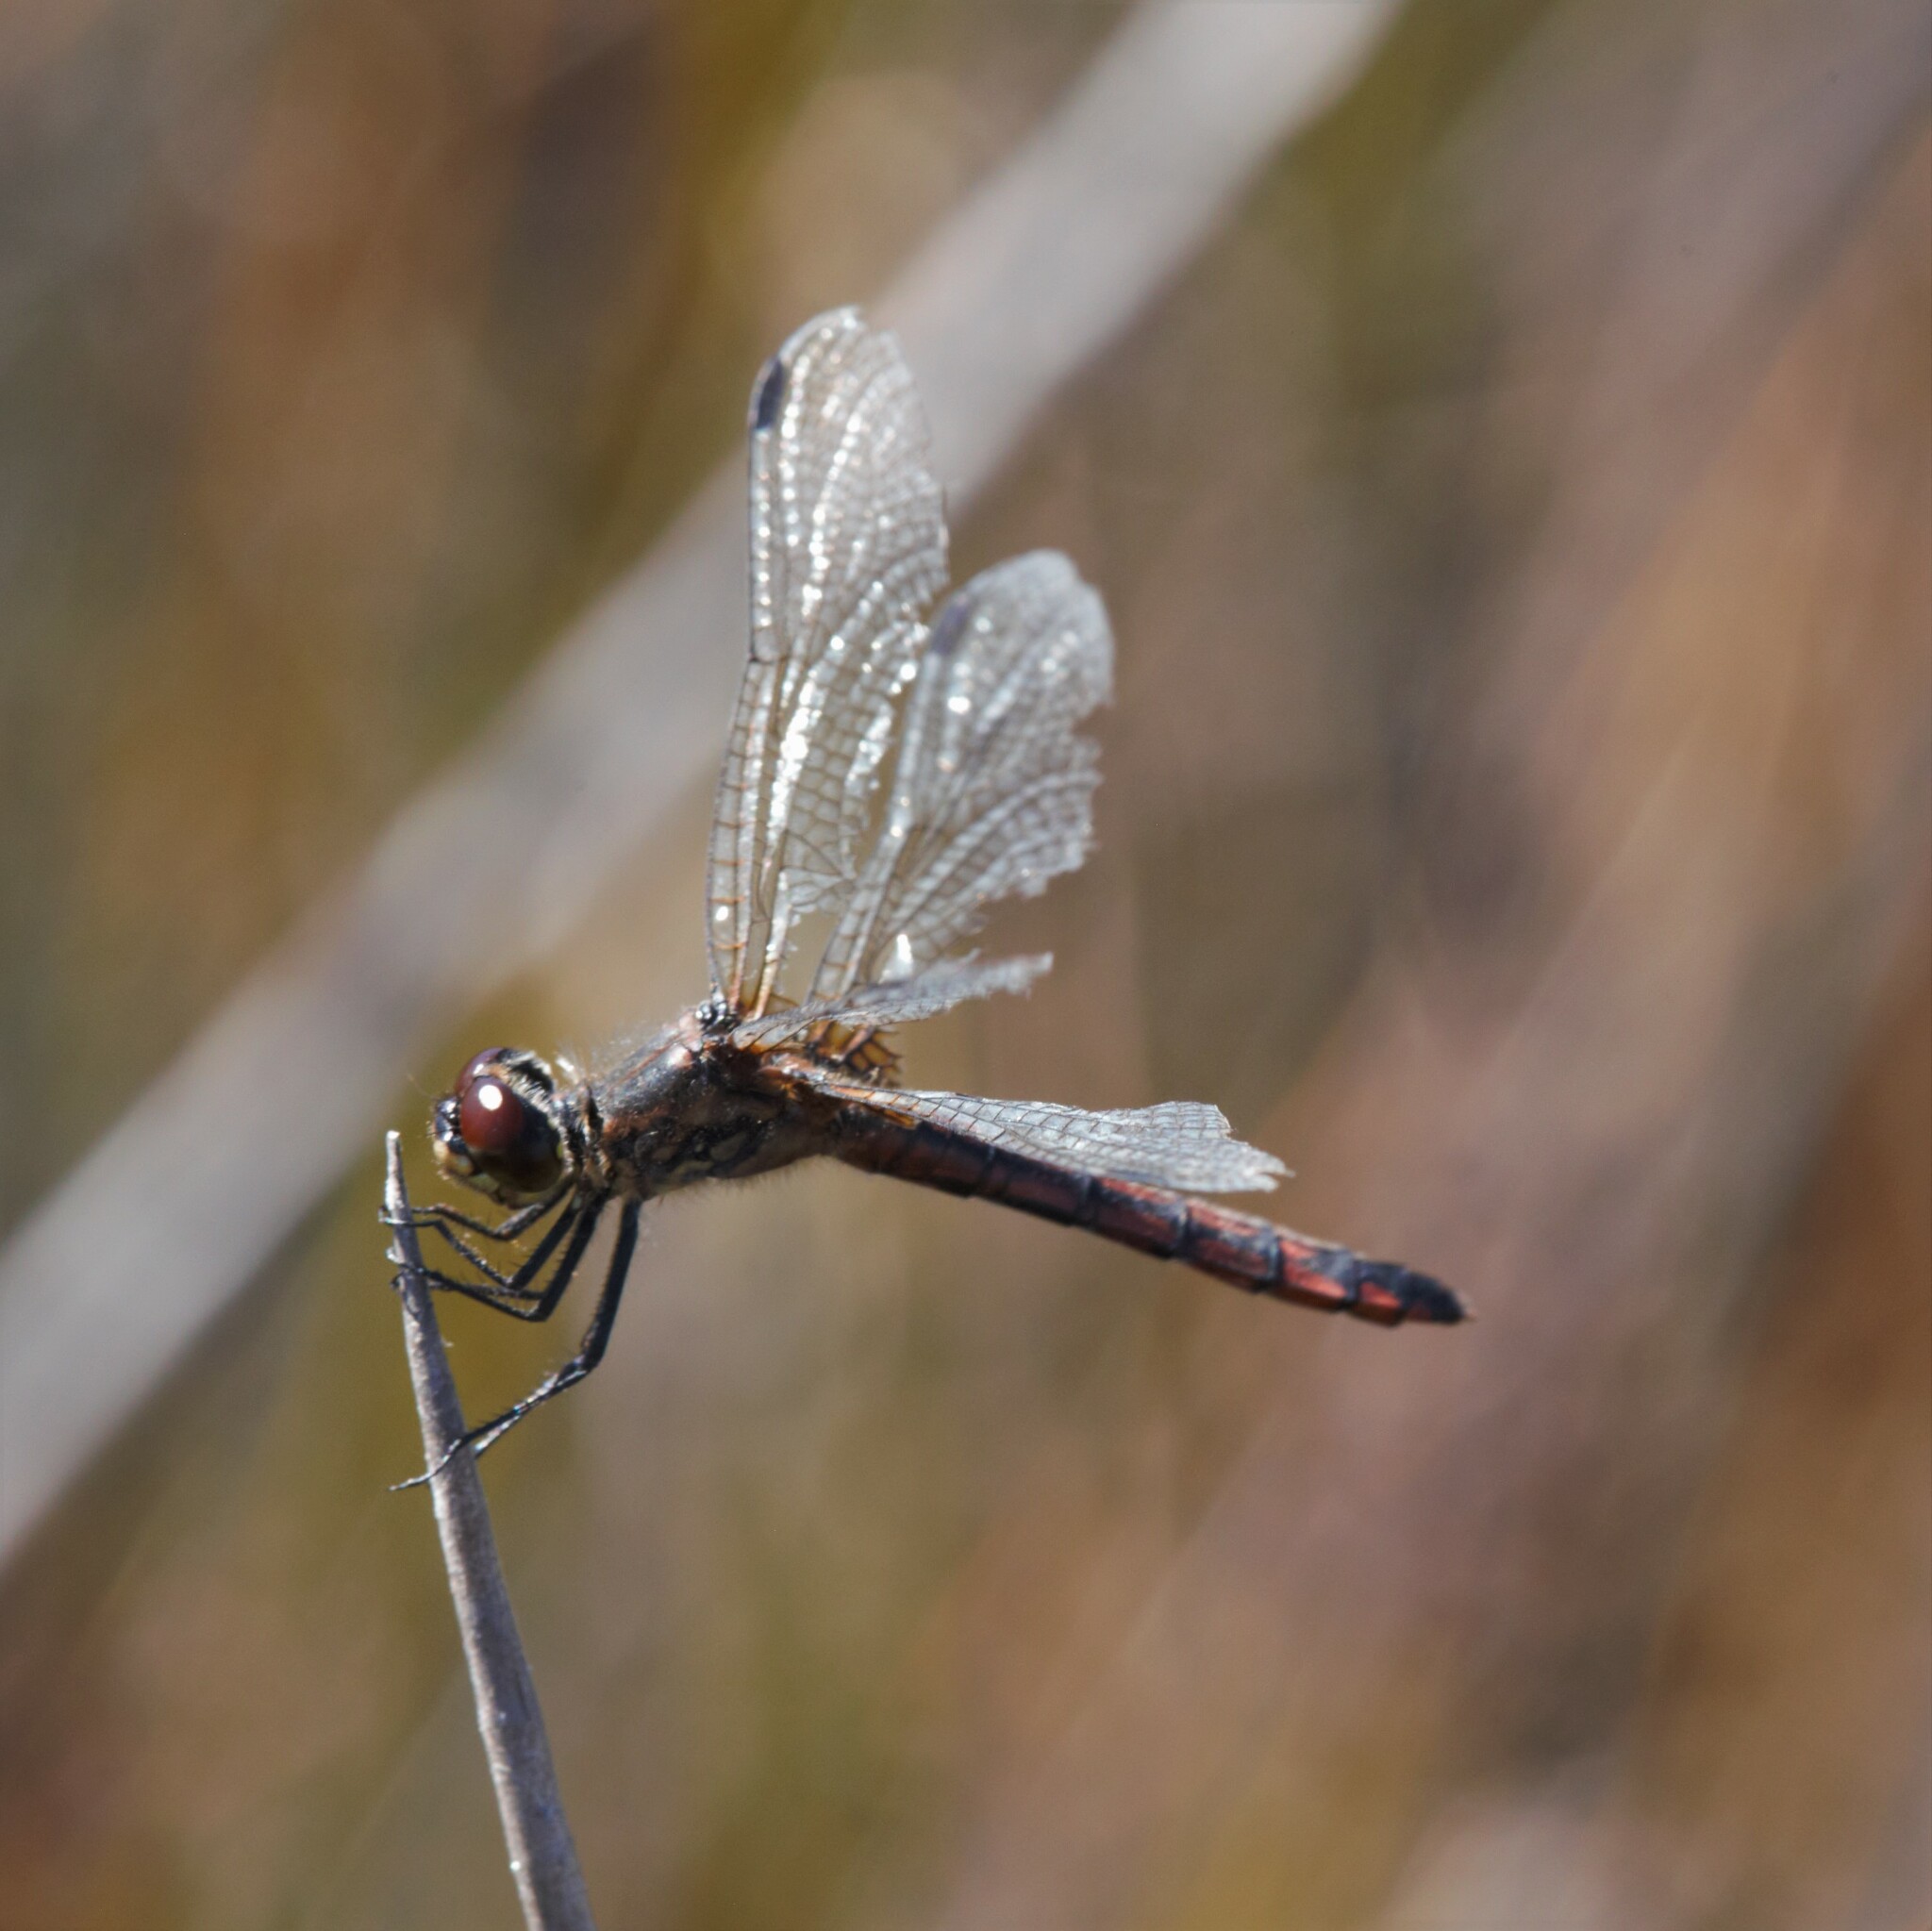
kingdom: Animalia
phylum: Arthropoda
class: Insecta
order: Odonata
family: Libellulidae
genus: Austrothemis
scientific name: Austrothemis nigrescens
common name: Swamp flat-tail
